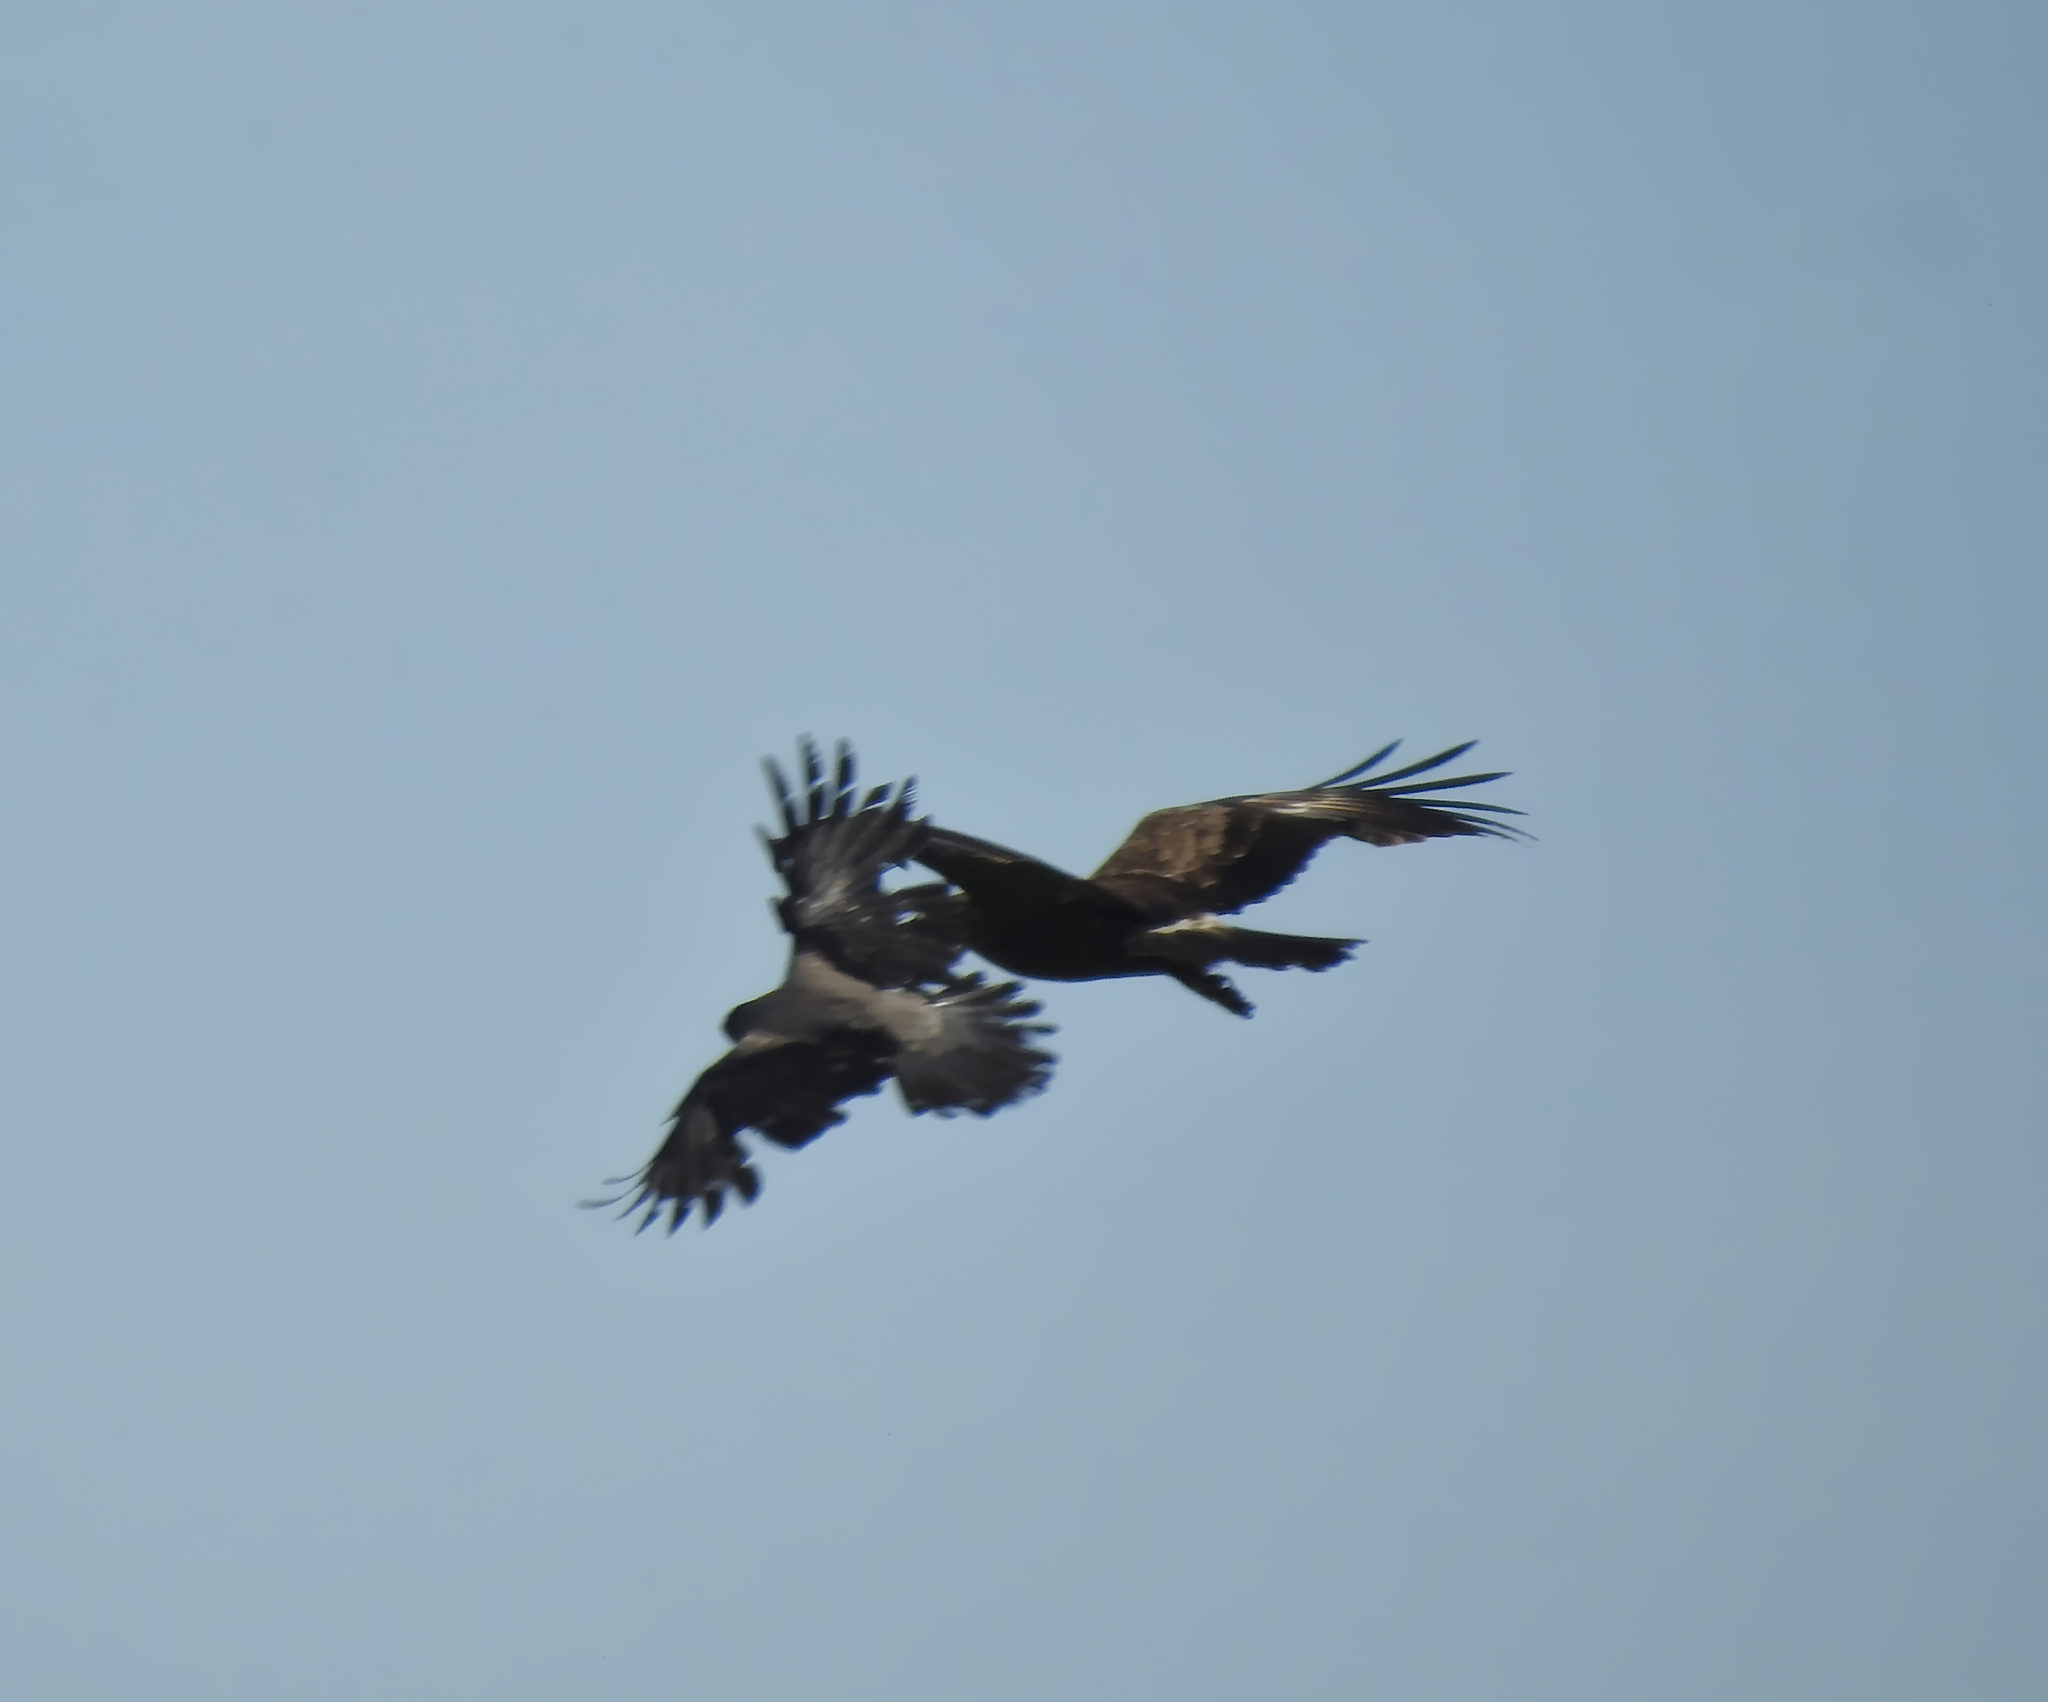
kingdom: Animalia
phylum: Chordata
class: Aves
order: Passeriformes
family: Corvidae
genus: Corvus
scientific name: Corvus cornix
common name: Hooded crow
